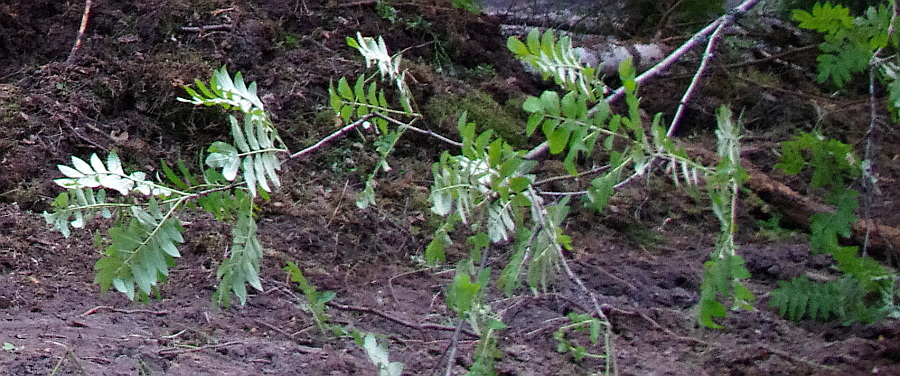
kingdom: Plantae
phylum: Tracheophyta
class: Magnoliopsida
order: Rosales
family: Rosaceae
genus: Sorbus
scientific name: Sorbus aucuparia
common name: Rowan
